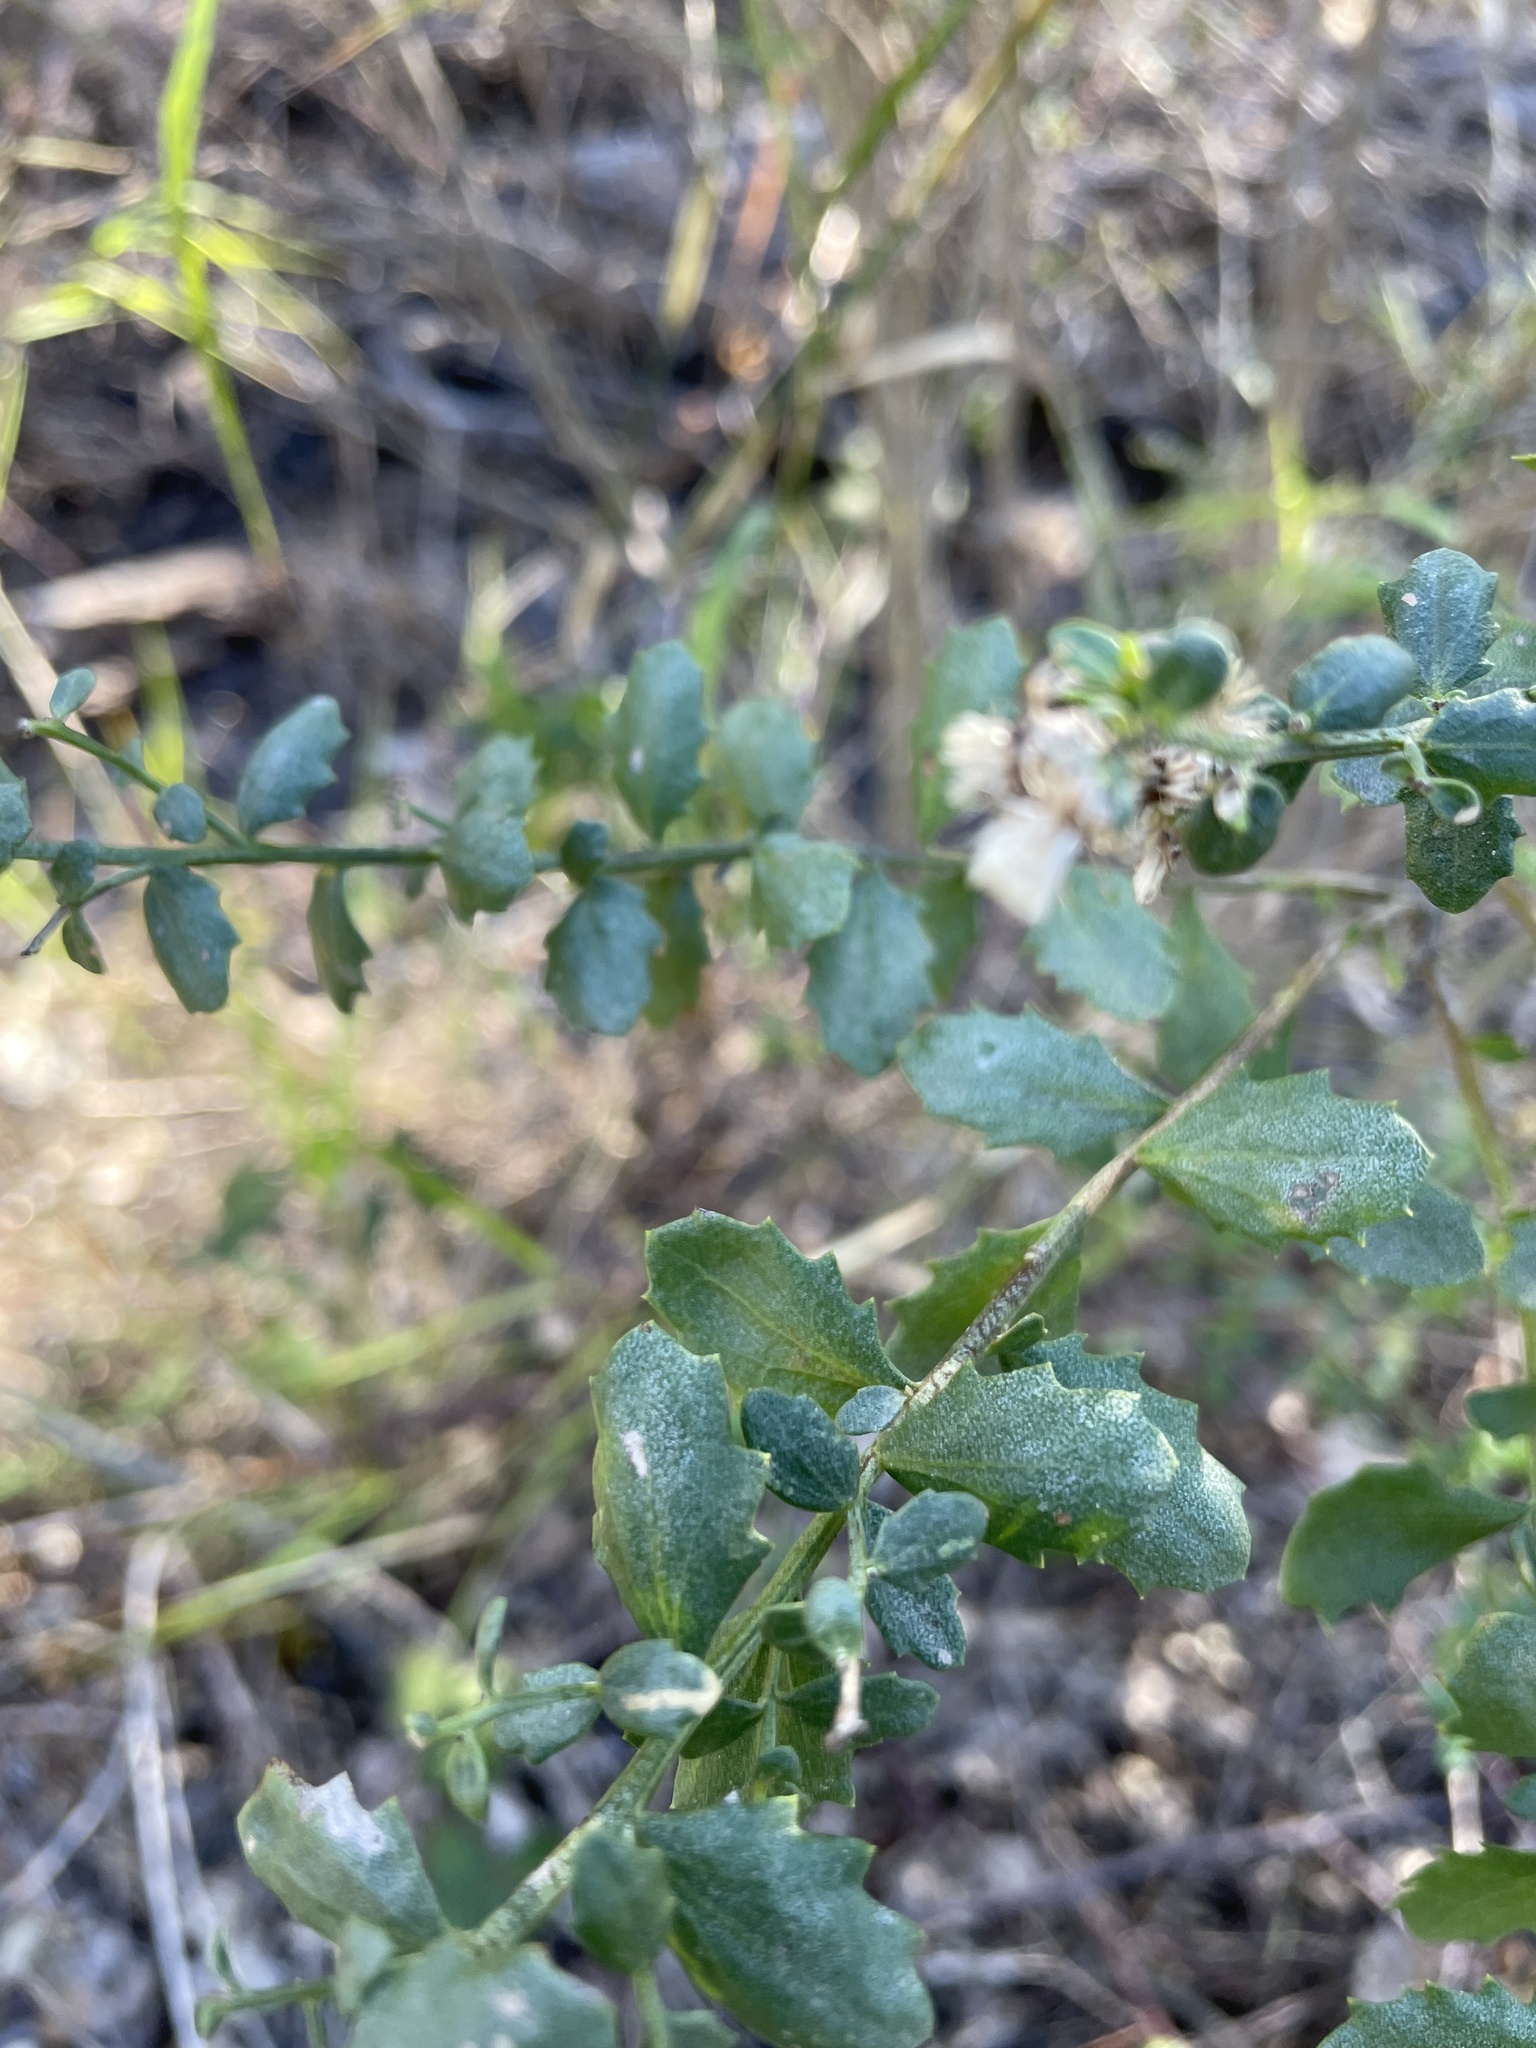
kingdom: Plantae
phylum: Tracheophyta
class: Magnoliopsida
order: Asterales
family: Asteraceae
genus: Baccharis
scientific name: Baccharis pilularis
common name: Coyotebrush
